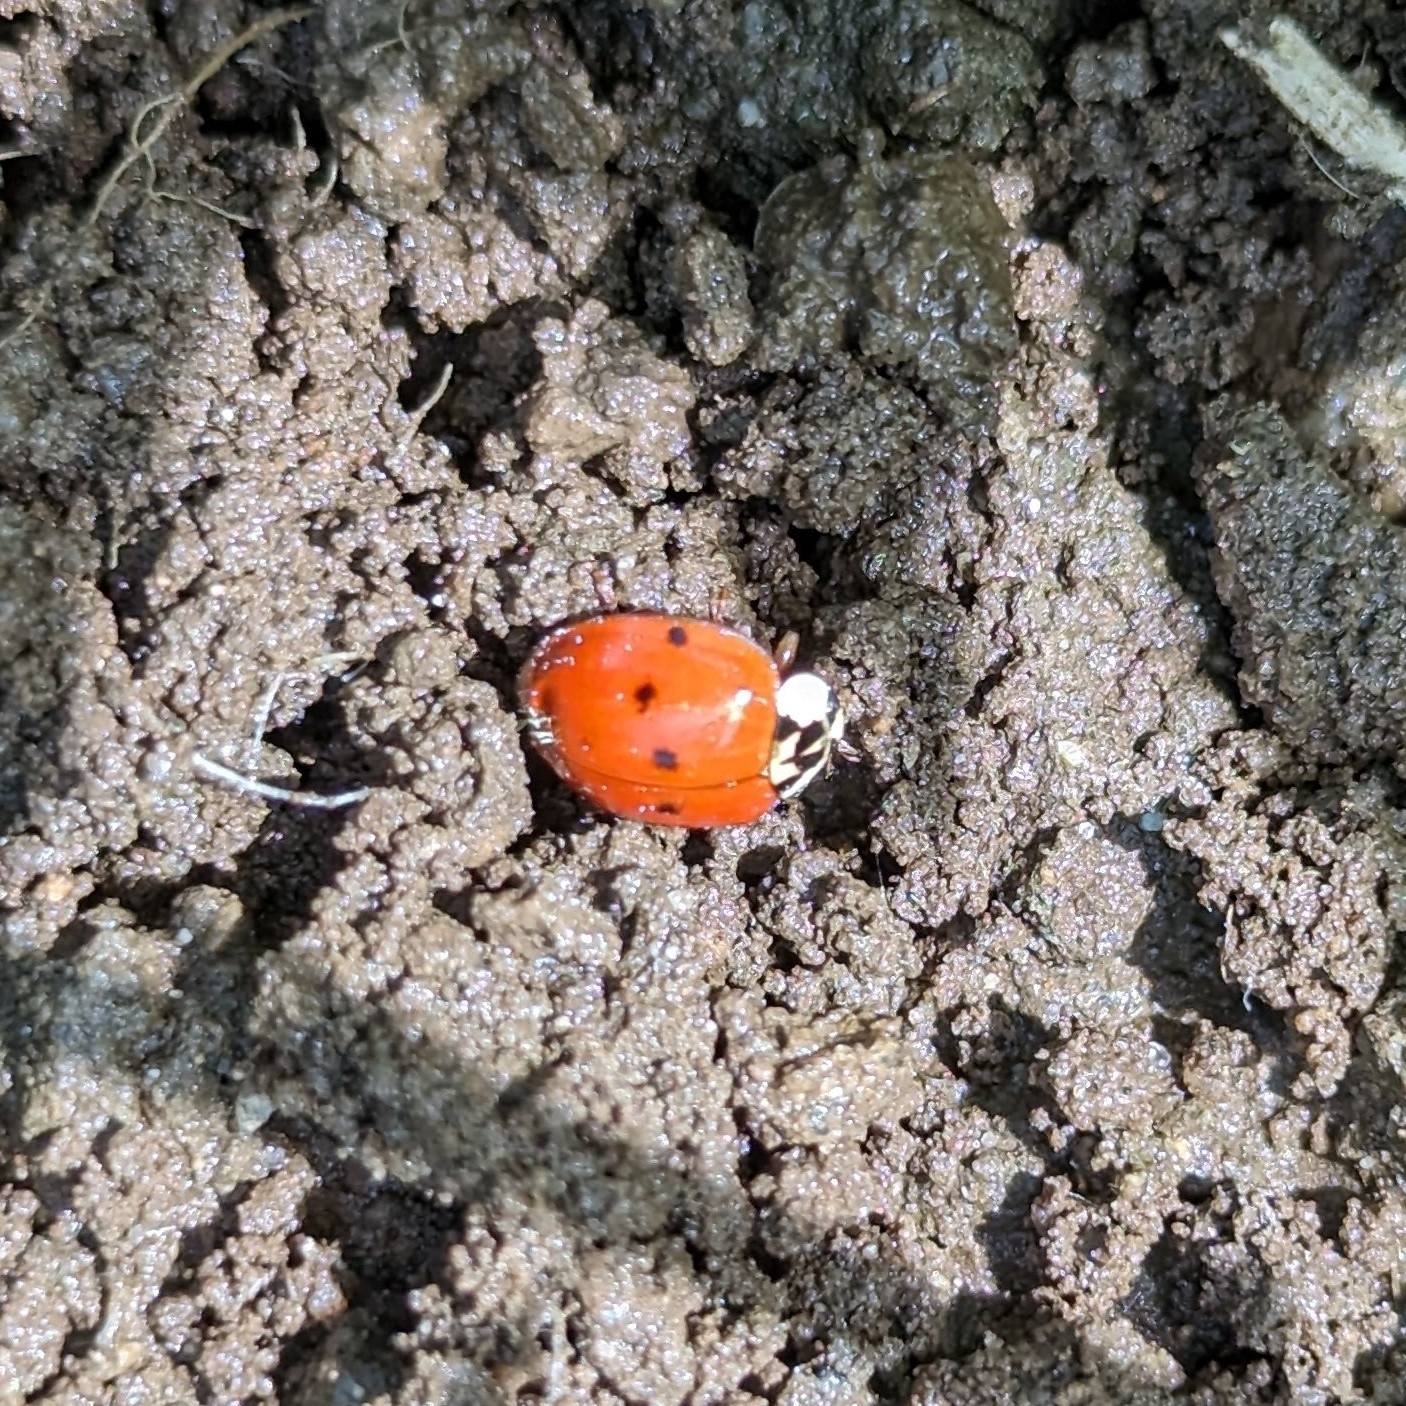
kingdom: Animalia
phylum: Arthropoda
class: Insecta
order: Coleoptera
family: Coccinellidae
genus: Harmonia
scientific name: Harmonia axyridis
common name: Harlequin ladybird
